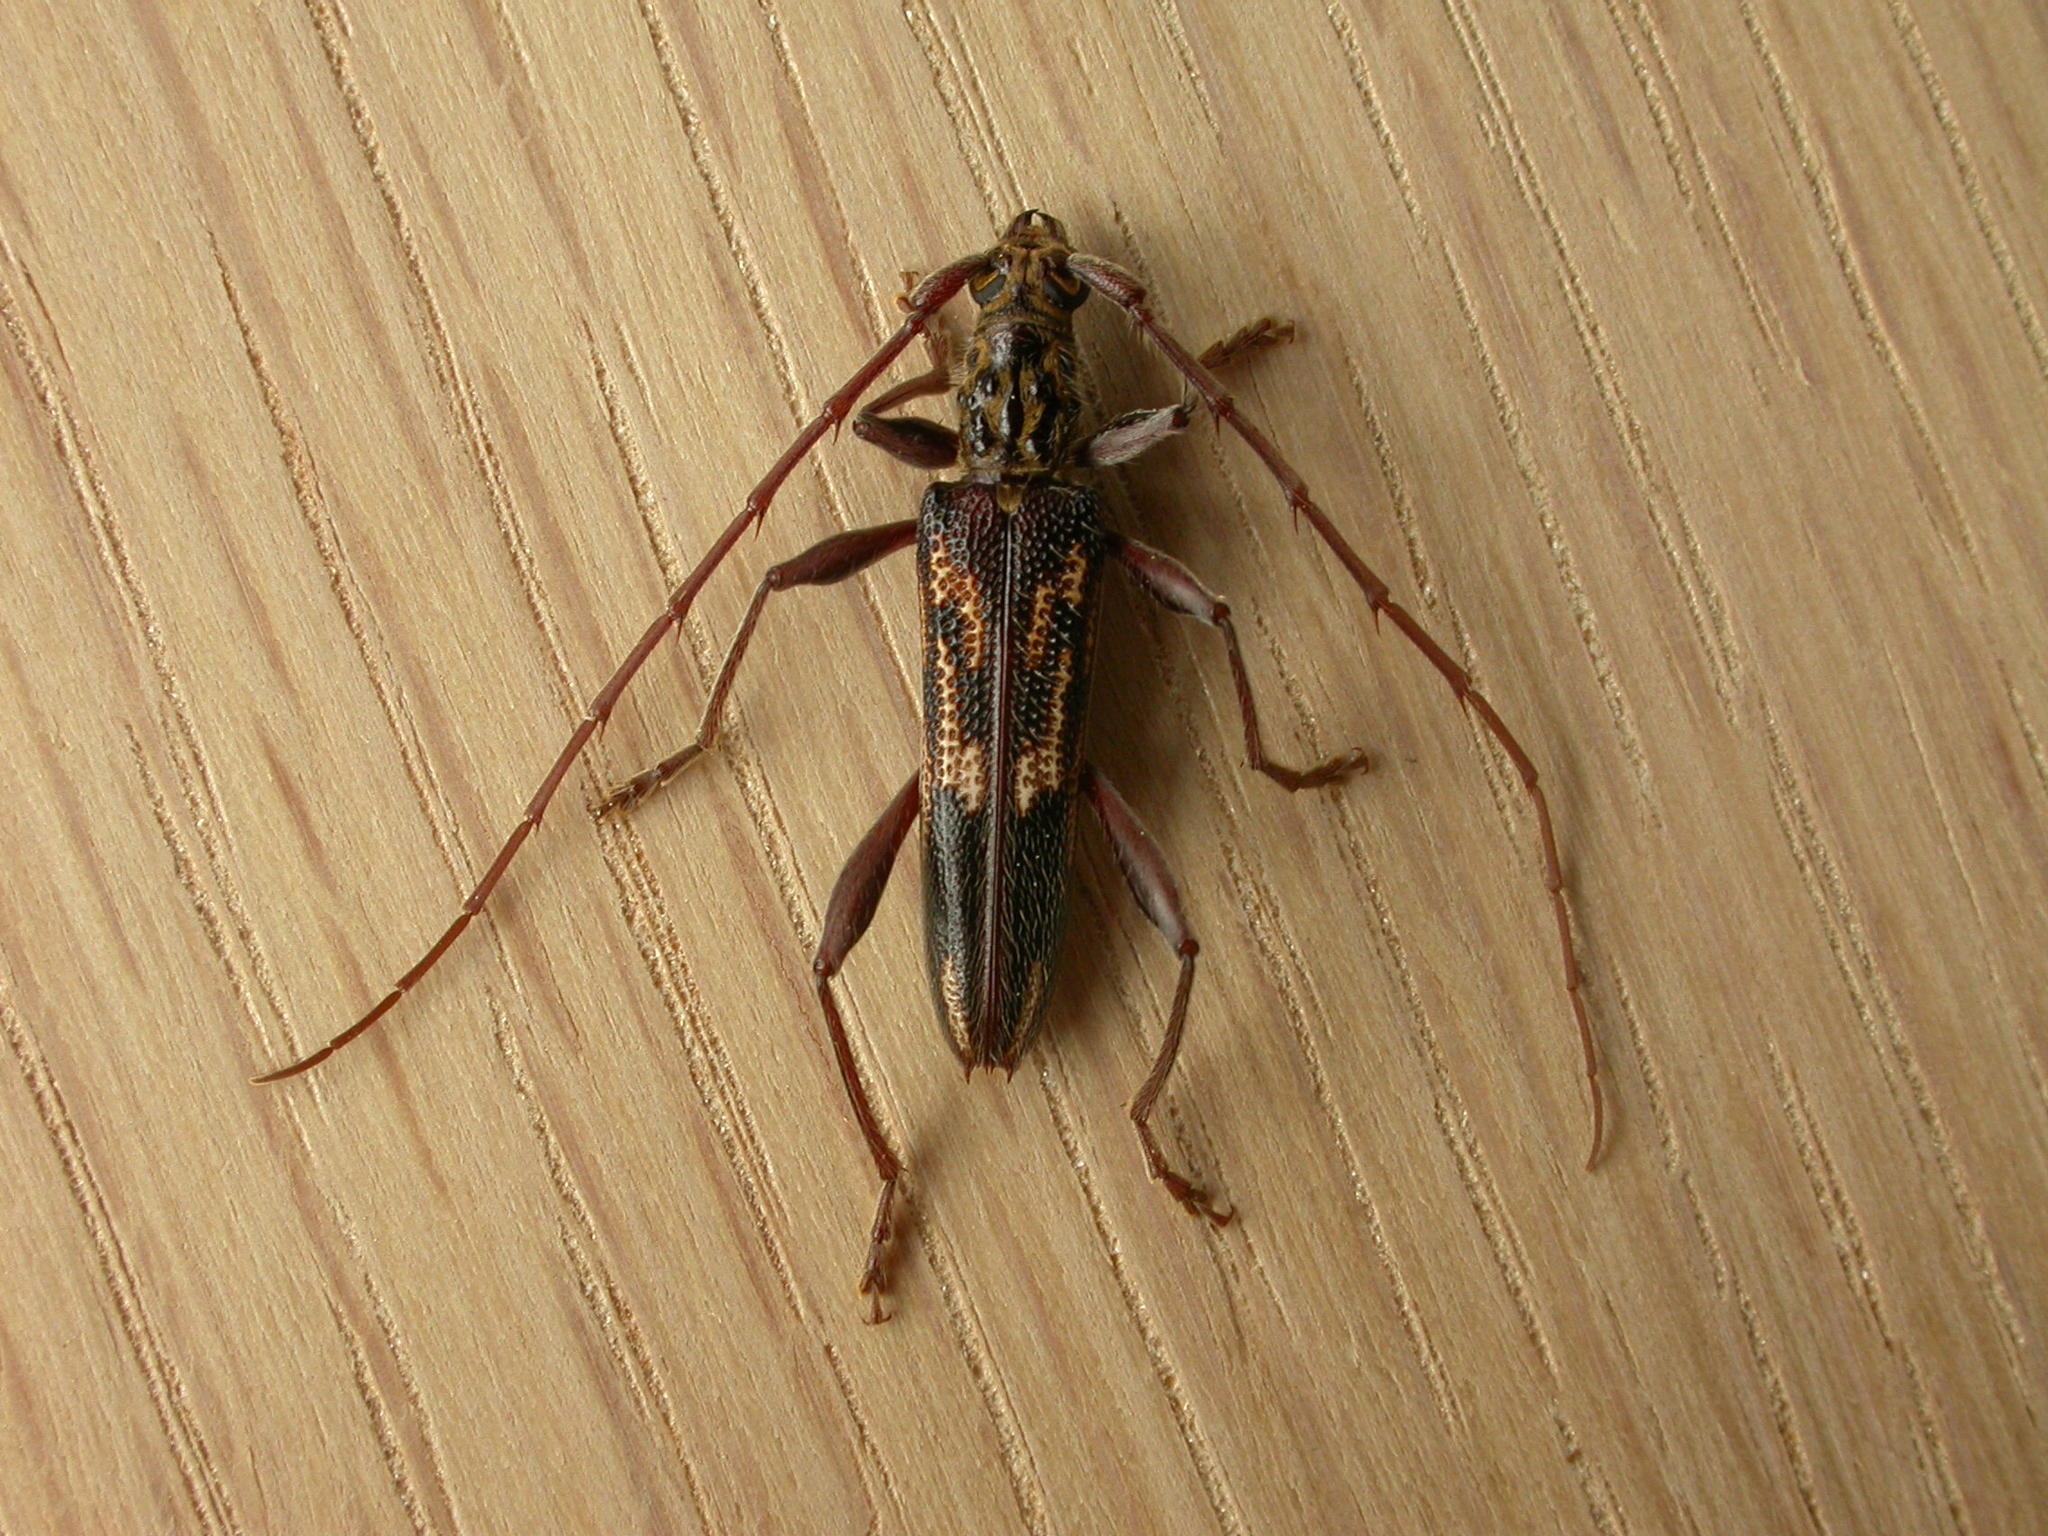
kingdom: Animalia
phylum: Arthropoda
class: Insecta
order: Coleoptera
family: Cerambycidae
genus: Coptocercus
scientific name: Coptocercus rubripes
